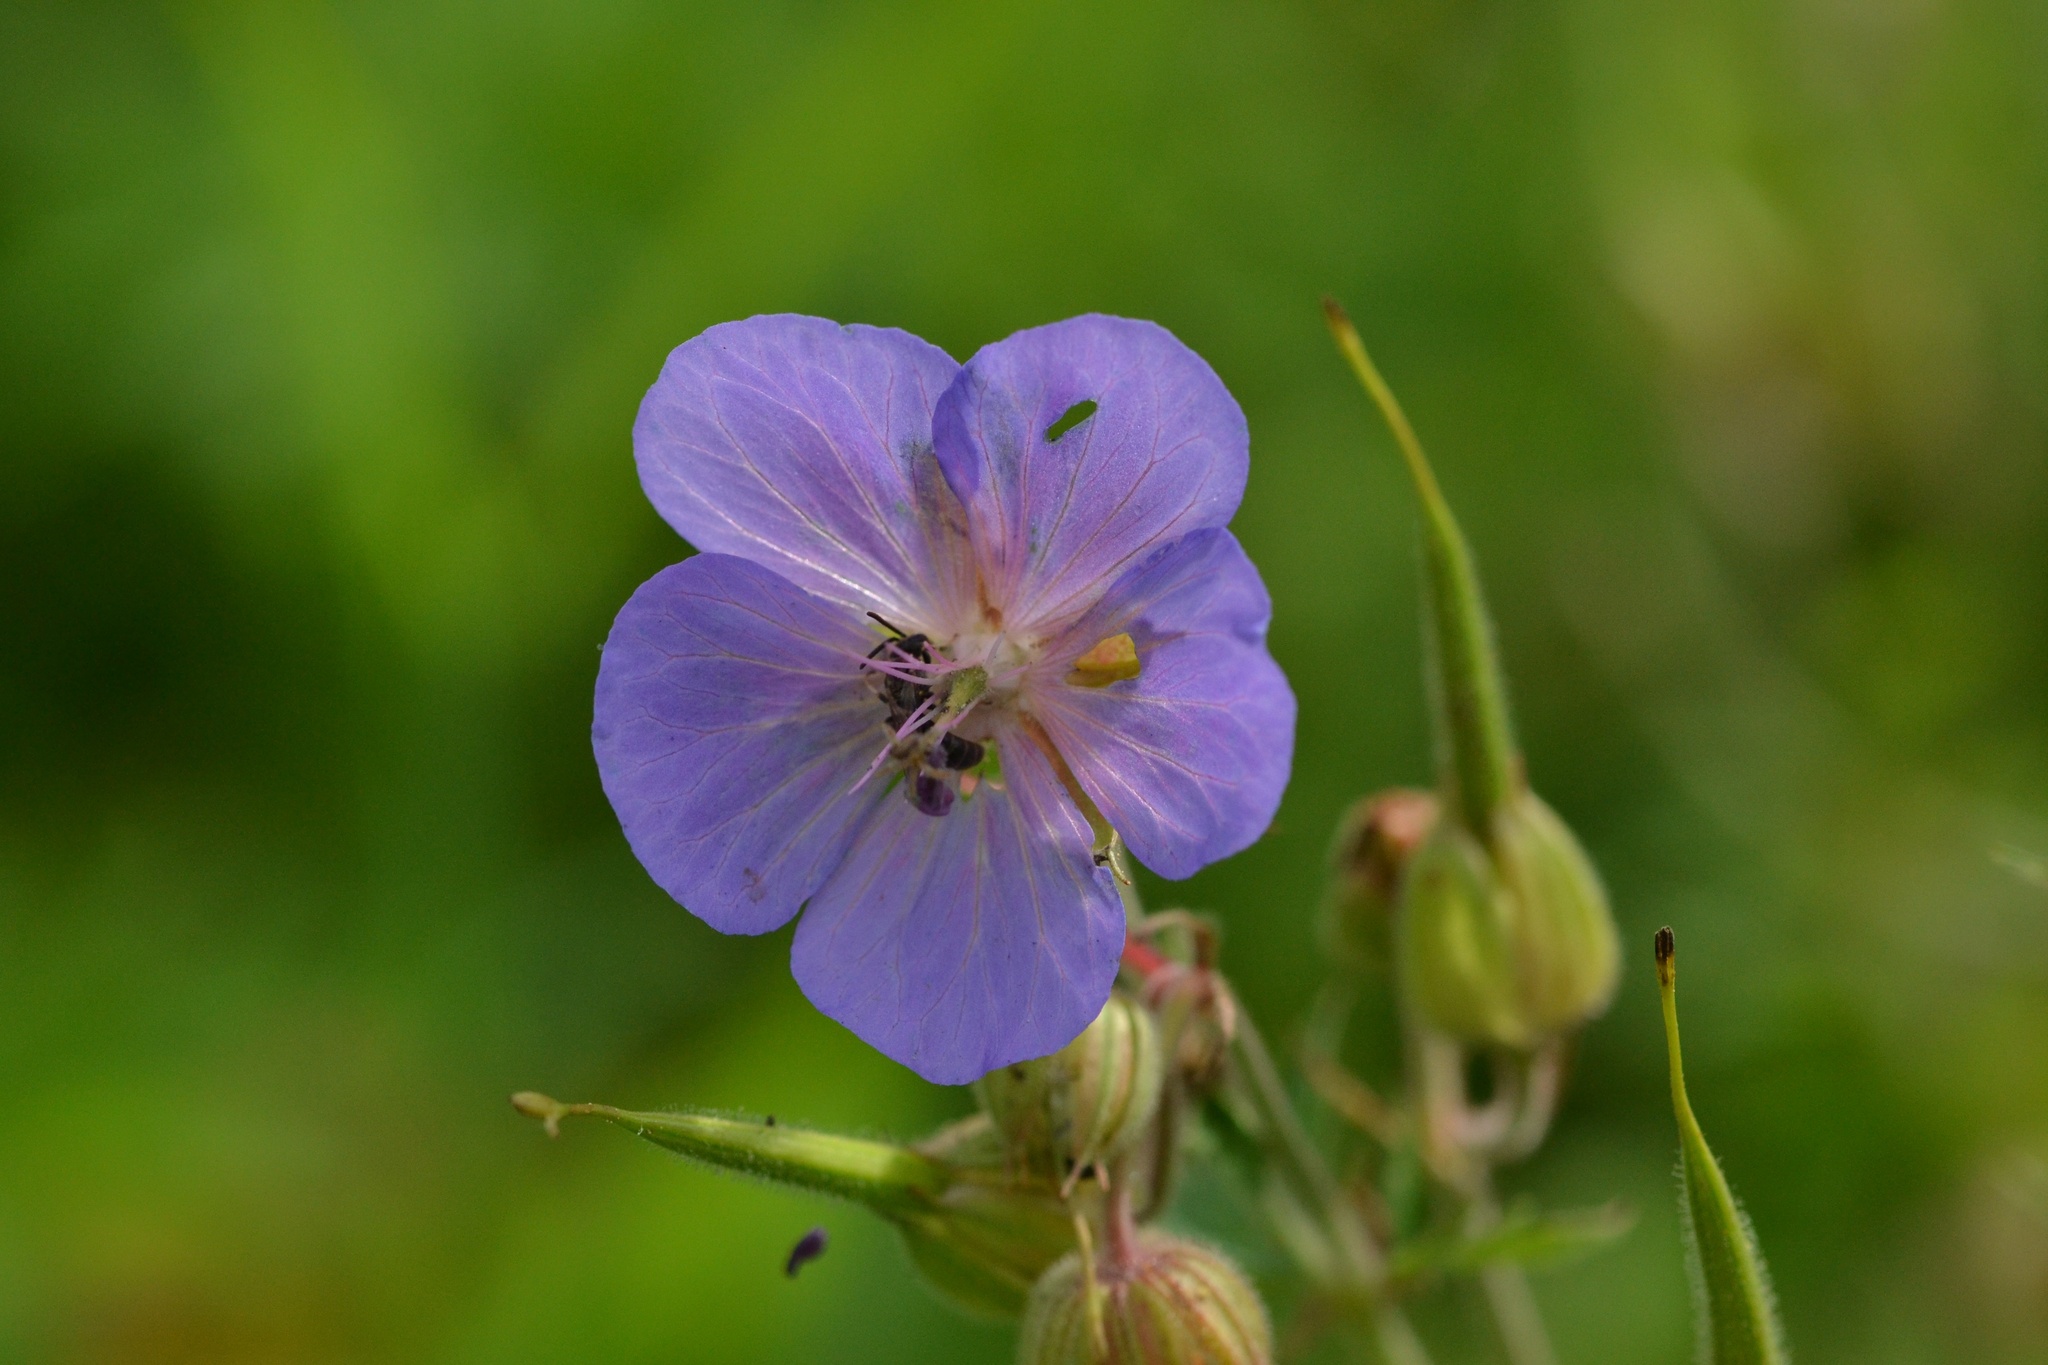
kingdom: Plantae
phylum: Tracheophyta
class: Magnoliopsida
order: Geraniales
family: Geraniaceae
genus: Geranium
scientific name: Geranium pratense
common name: Meadow crane's-bill
